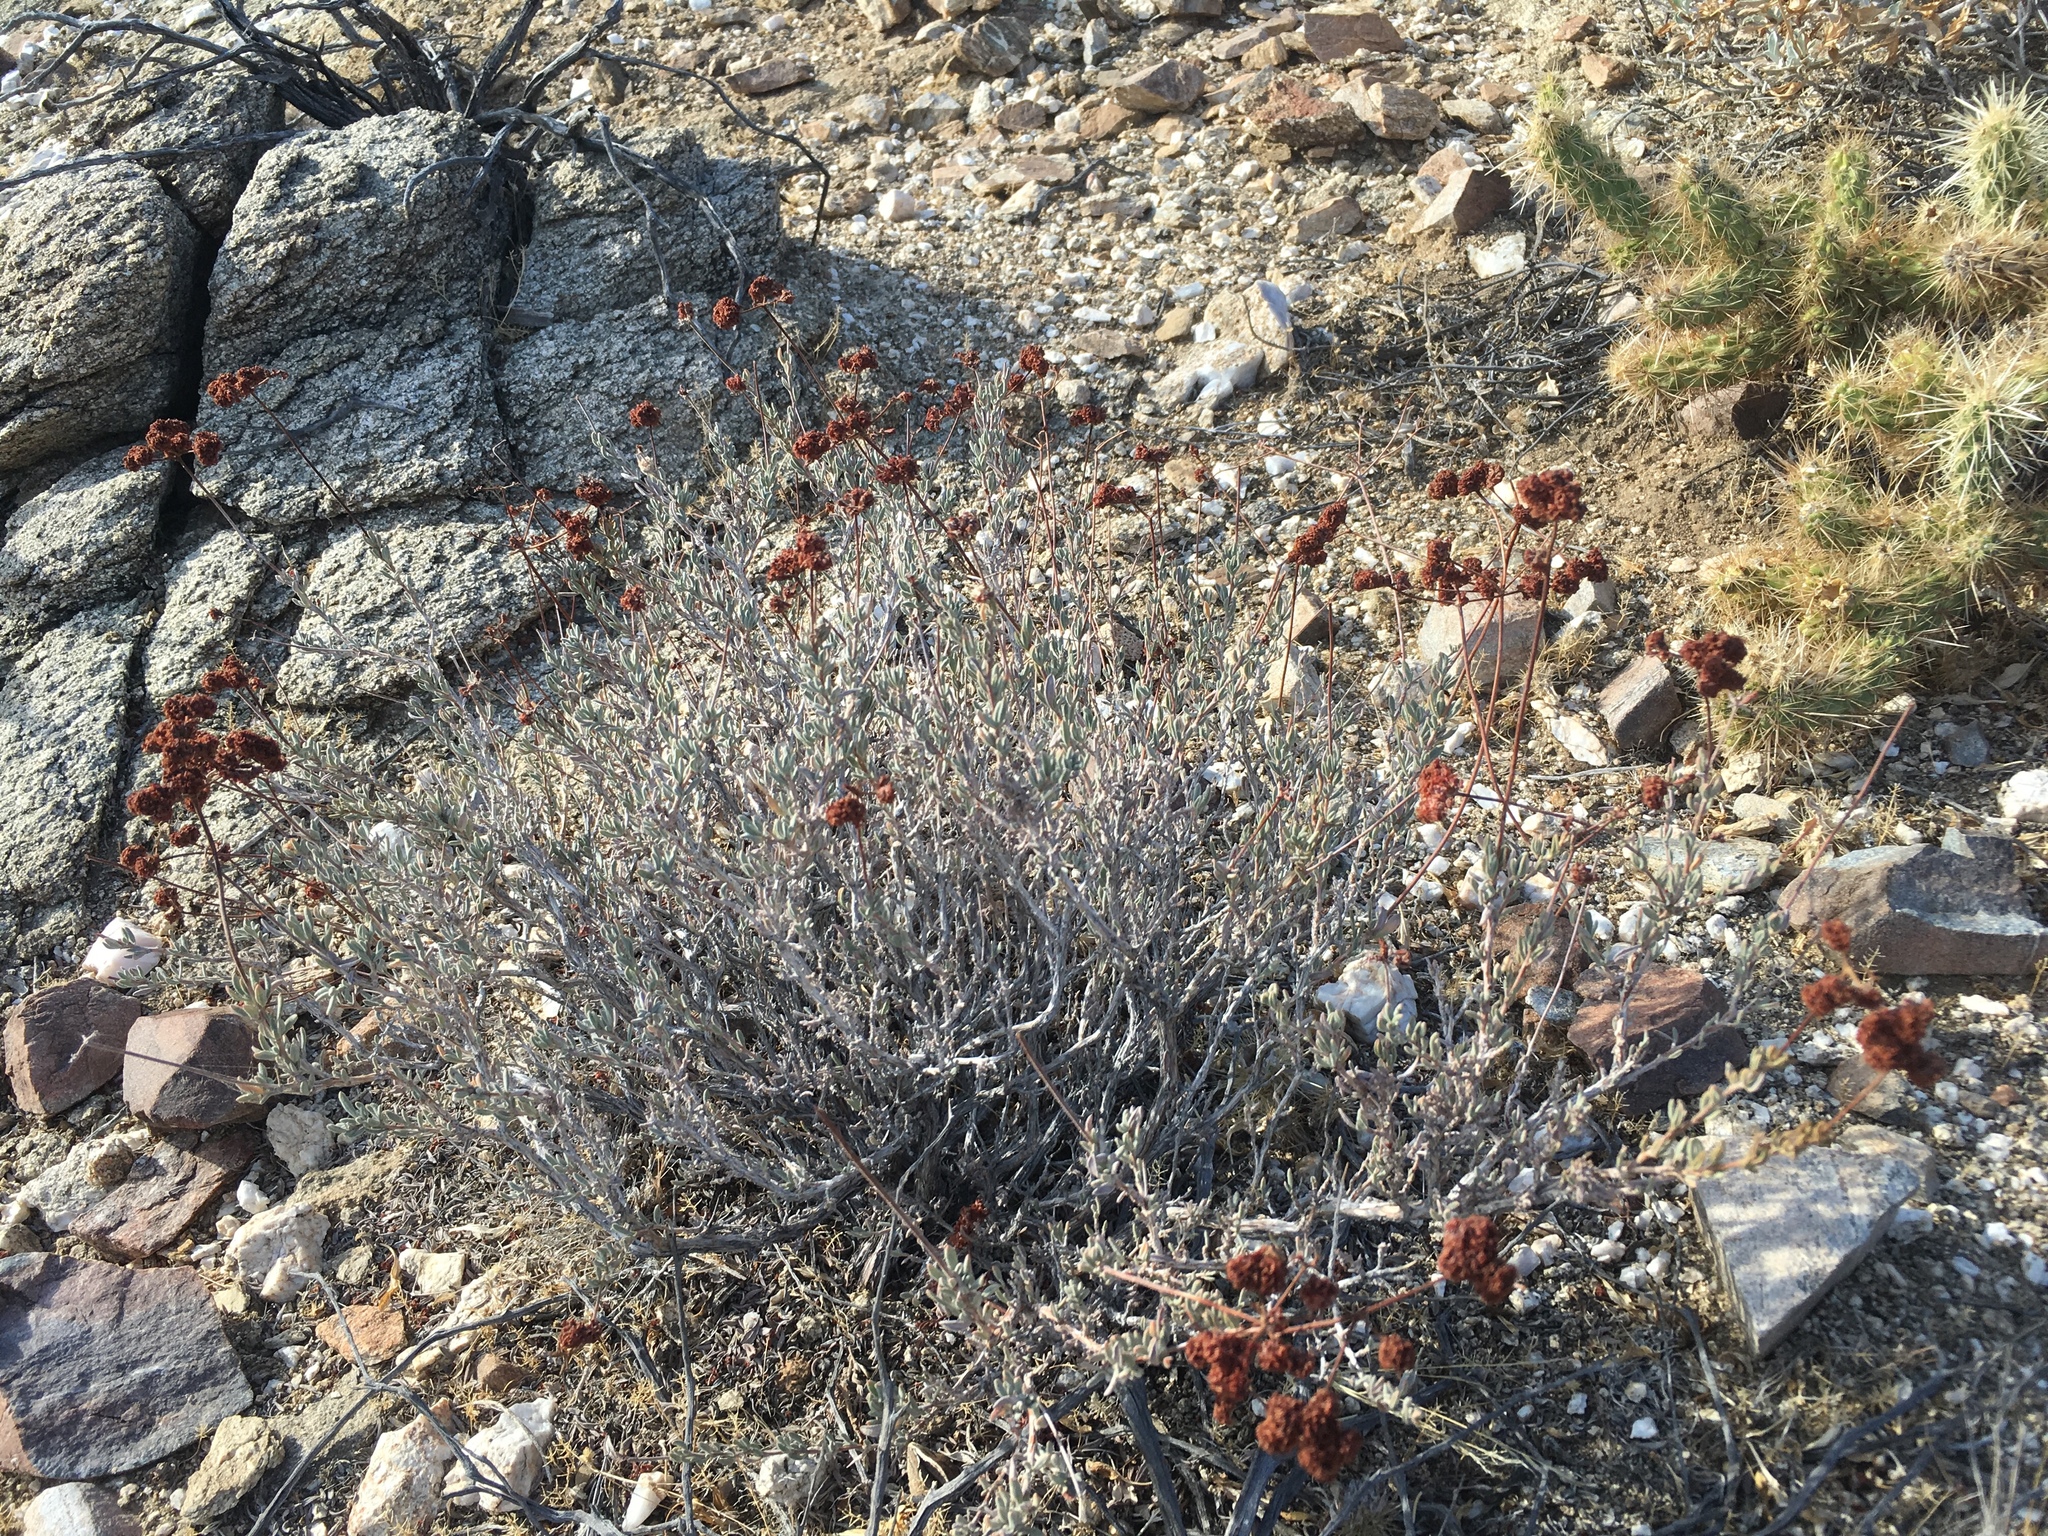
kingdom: Plantae
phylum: Tracheophyta
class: Magnoliopsida
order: Caryophyllales
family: Polygonaceae
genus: Eriogonum
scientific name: Eriogonum fasciculatum
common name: California wild buckwheat
